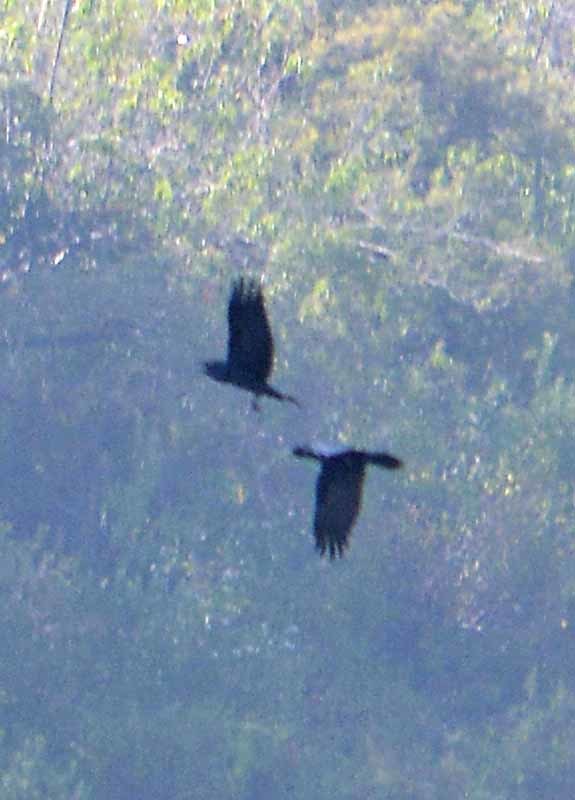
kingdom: Animalia
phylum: Chordata
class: Aves
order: Passeriformes
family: Corvidae
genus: Corvus
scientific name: Corvus corax
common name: Common raven
